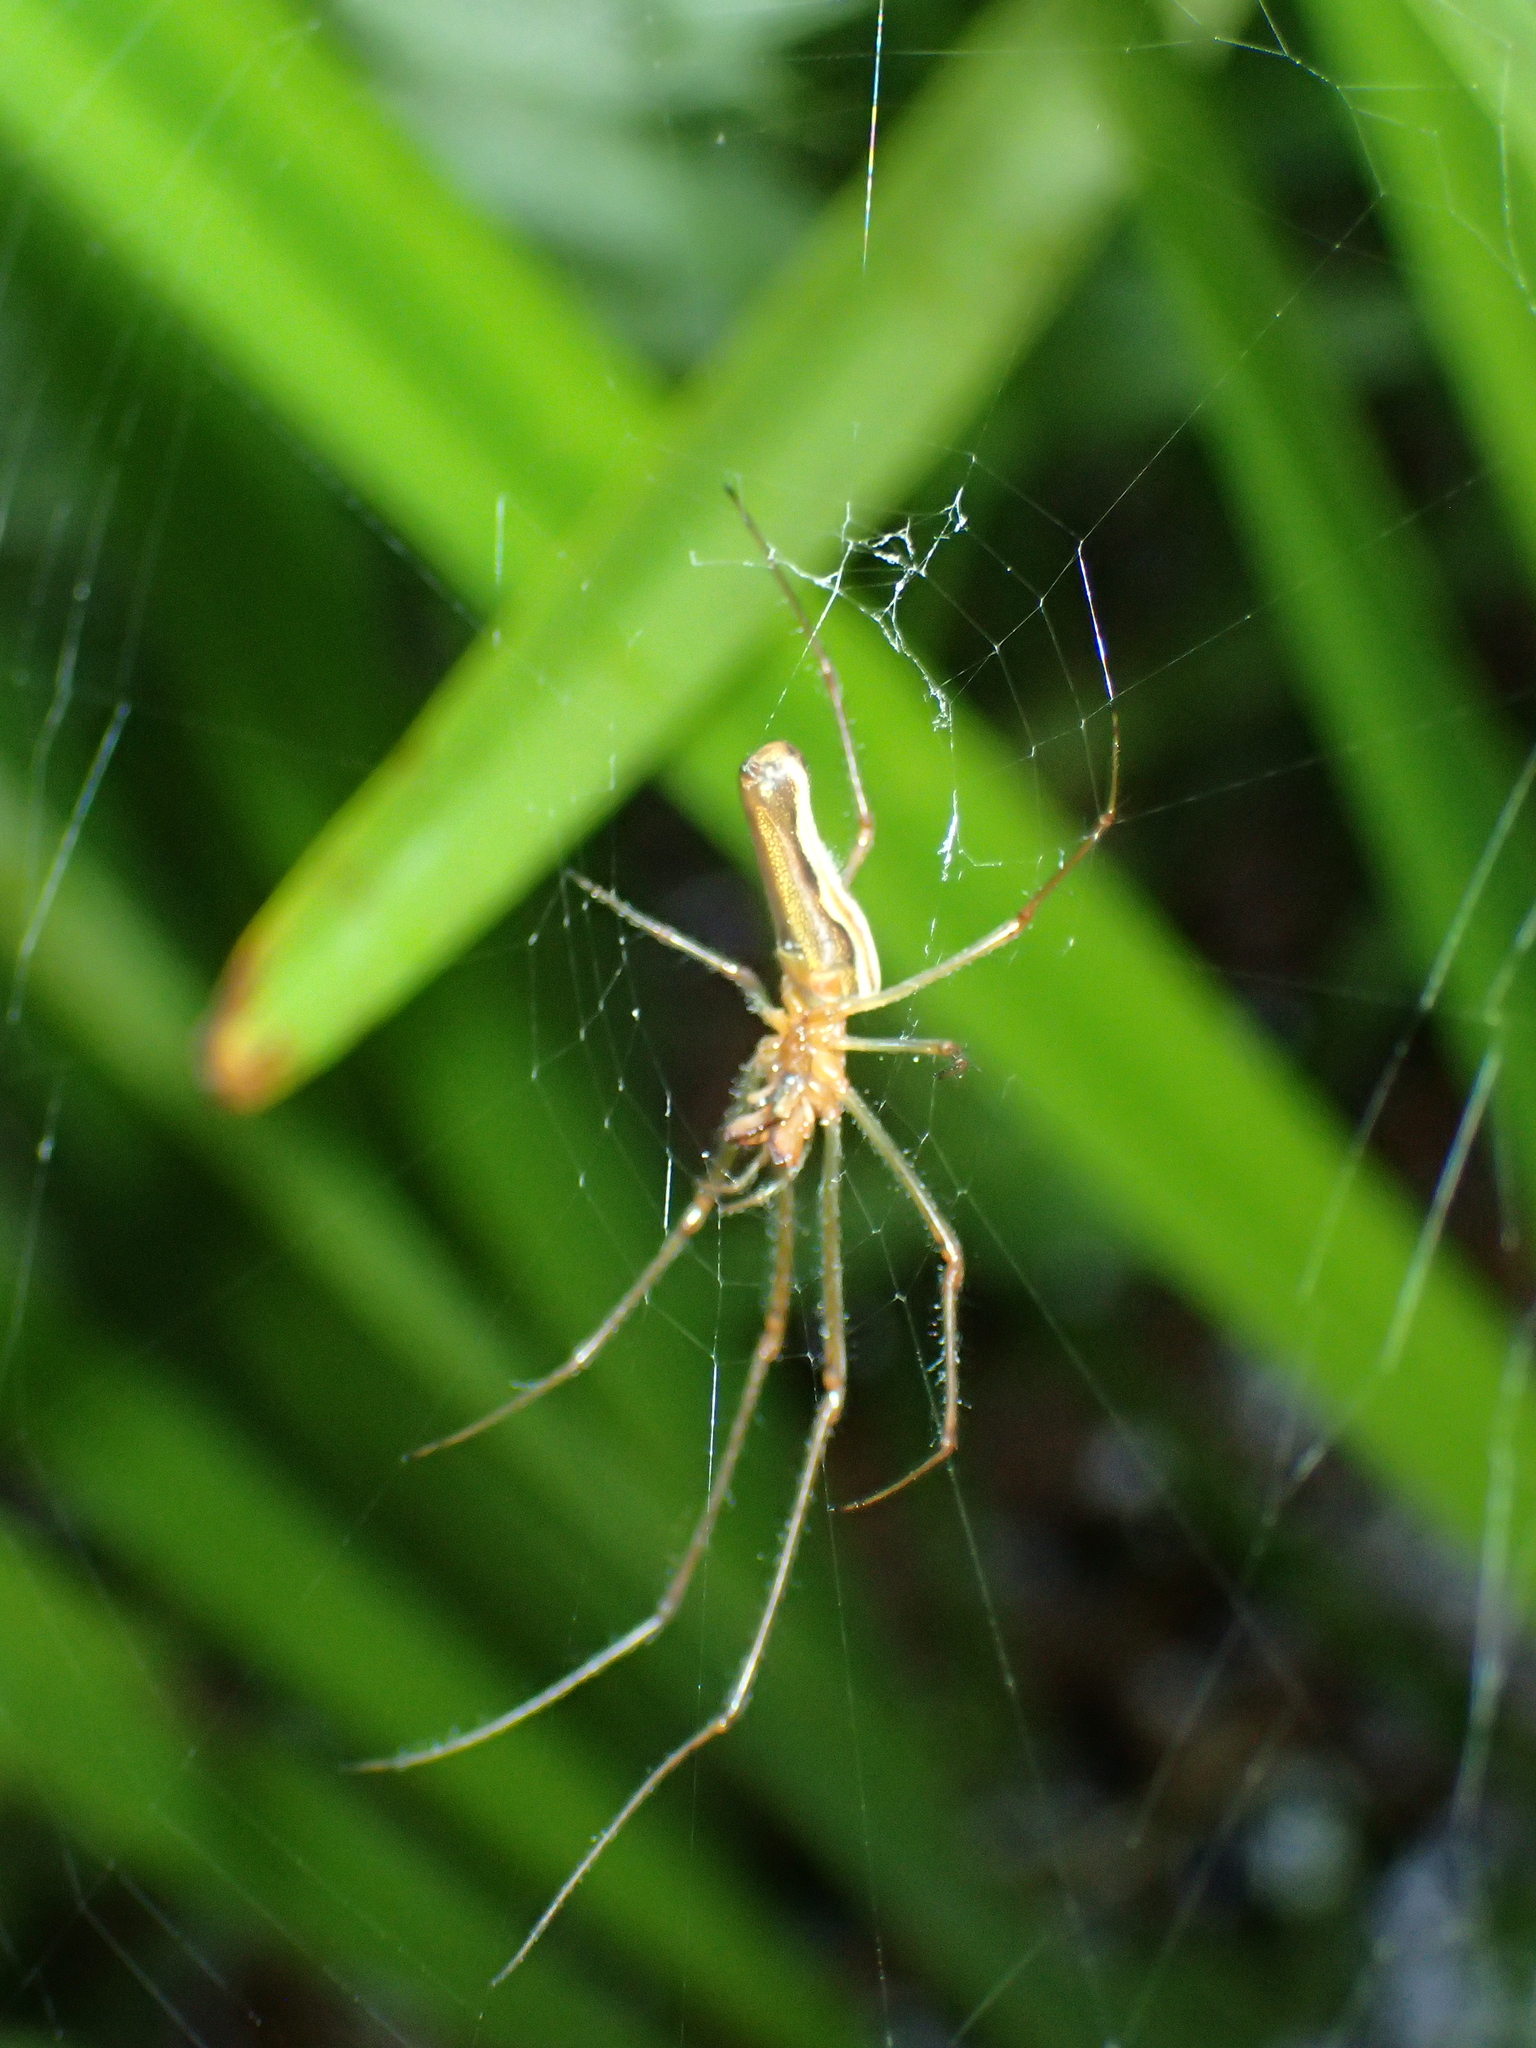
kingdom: Animalia
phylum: Arthropoda
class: Arachnida
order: Araneae
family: Tetragnathidae
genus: Tetragnatha
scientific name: Tetragnatha
